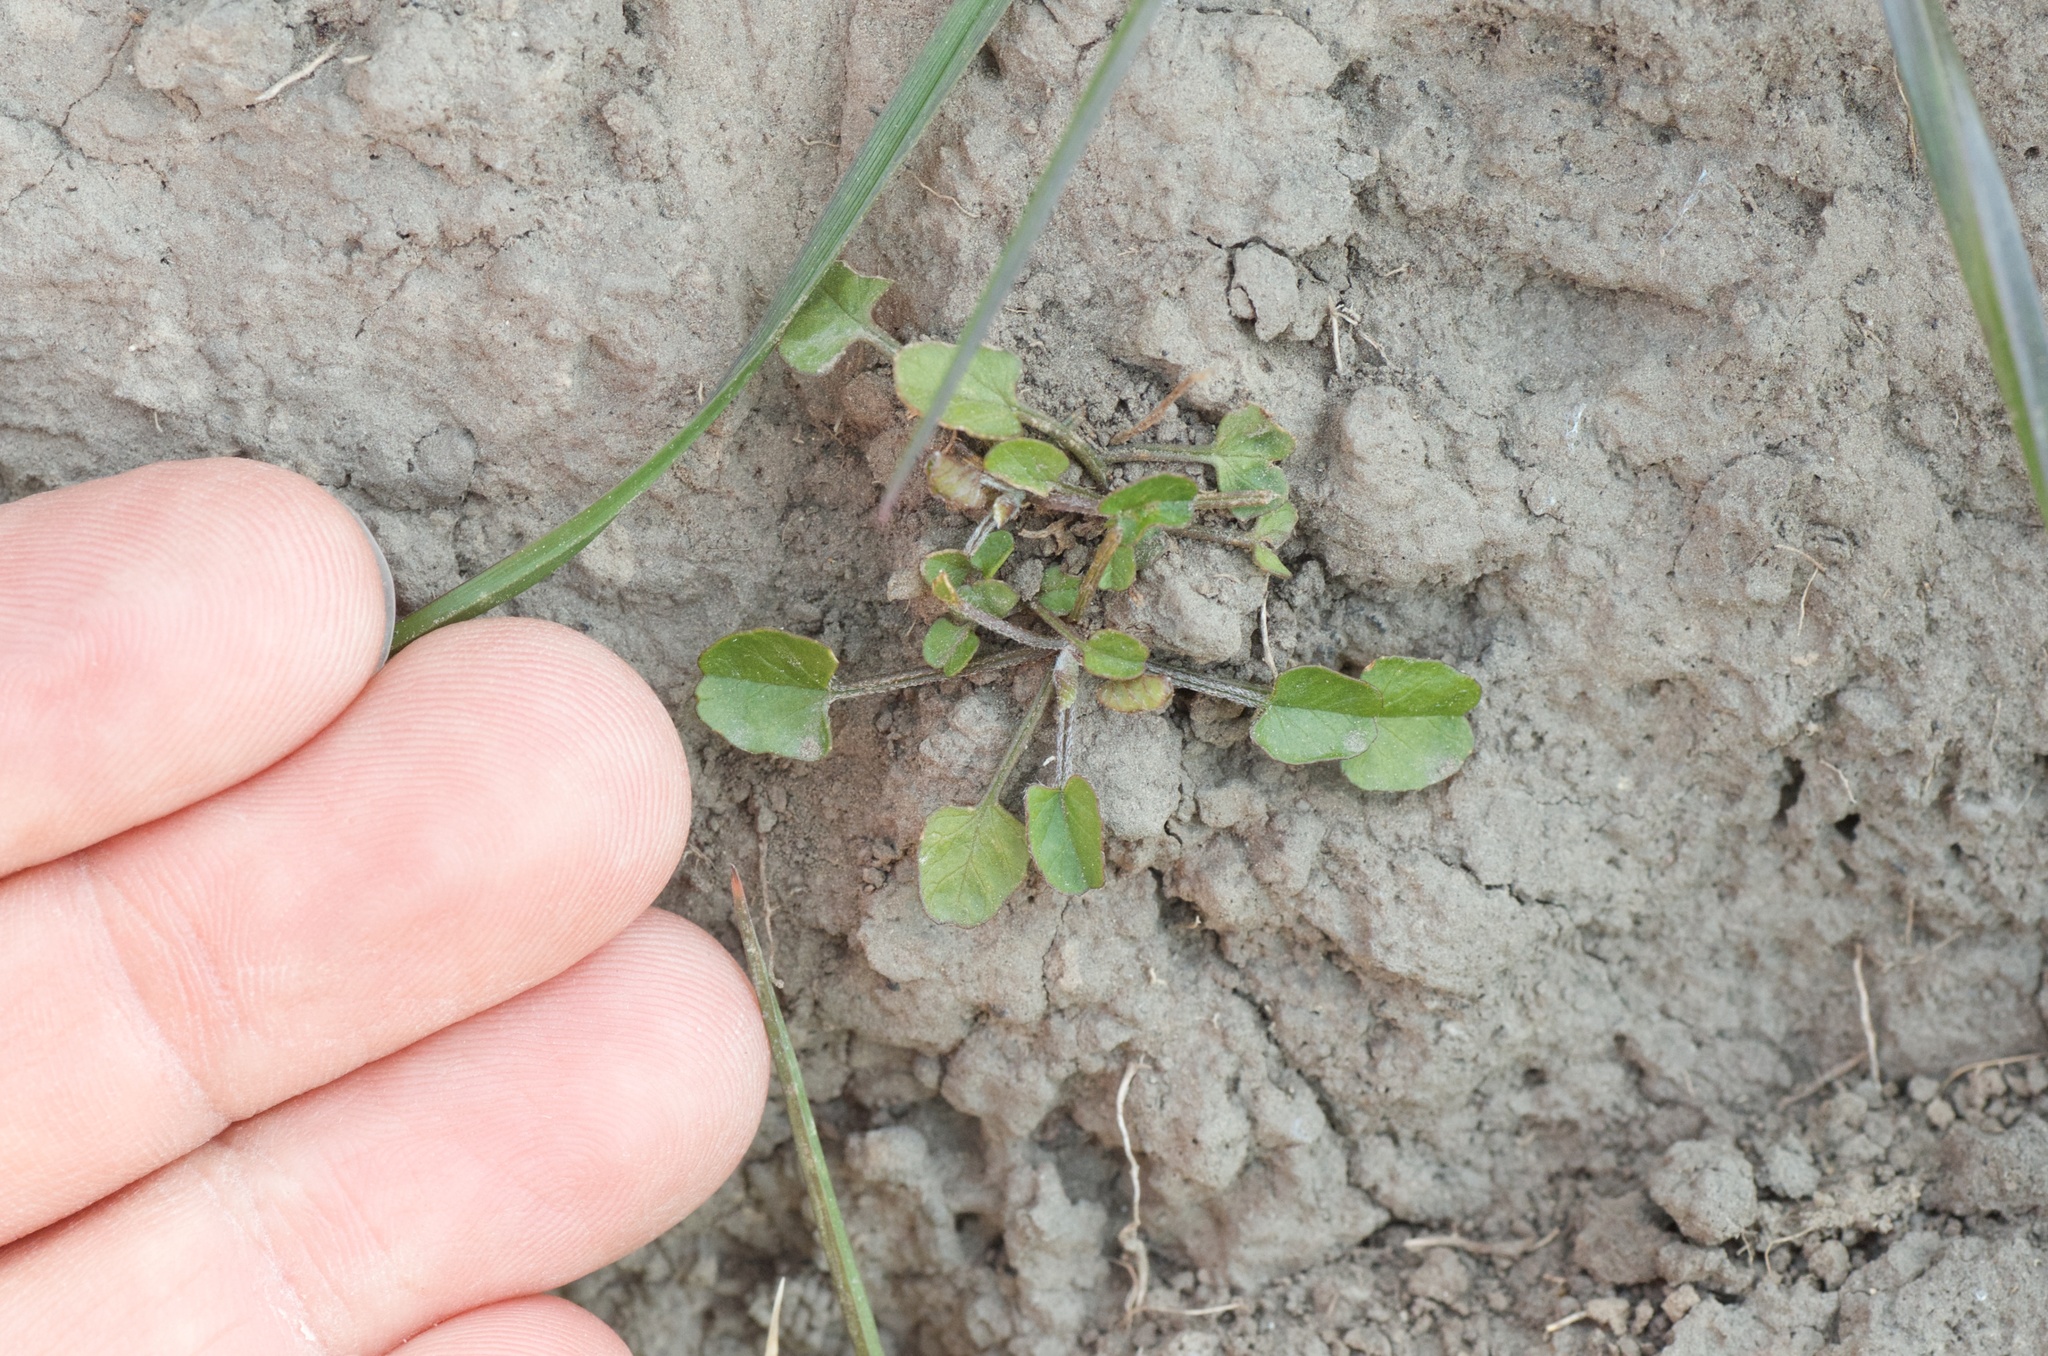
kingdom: Plantae
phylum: Tracheophyta
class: Magnoliopsida
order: Solanales
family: Convolvulaceae
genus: Convolvulus
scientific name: Convolvulus waitaha
